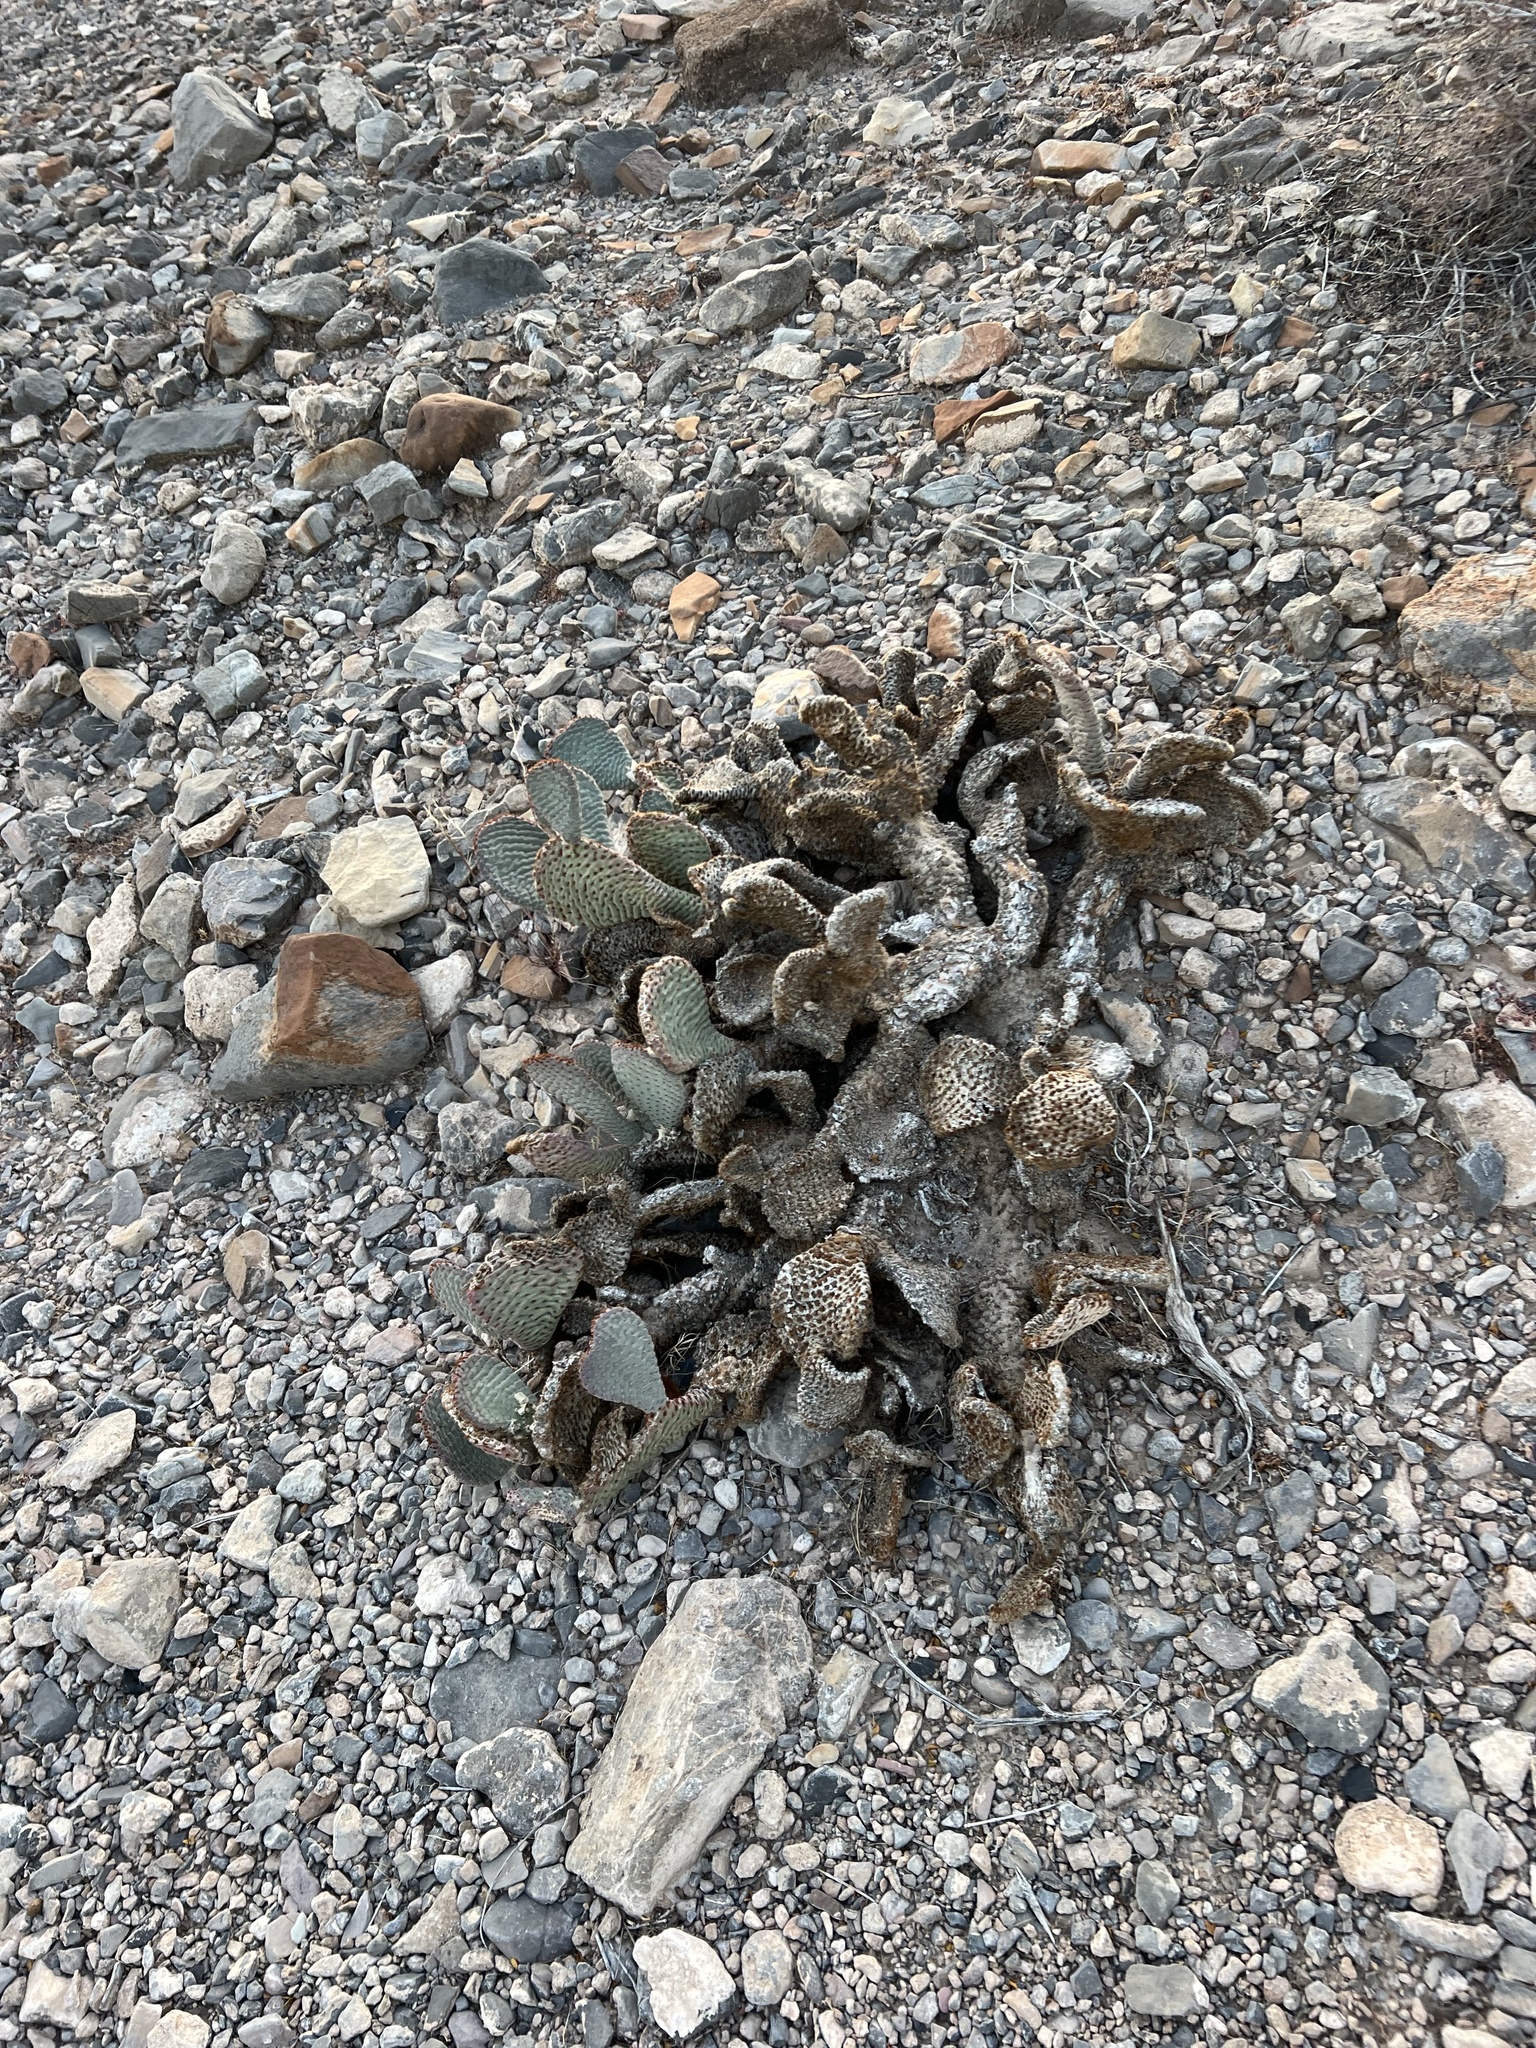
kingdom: Plantae
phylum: Tracheophyta
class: Magnoliopsida
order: Caryophyllales
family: Cactaceae
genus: Opuntia
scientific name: Opuntia basilaris
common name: Beavertail prickly-pear
